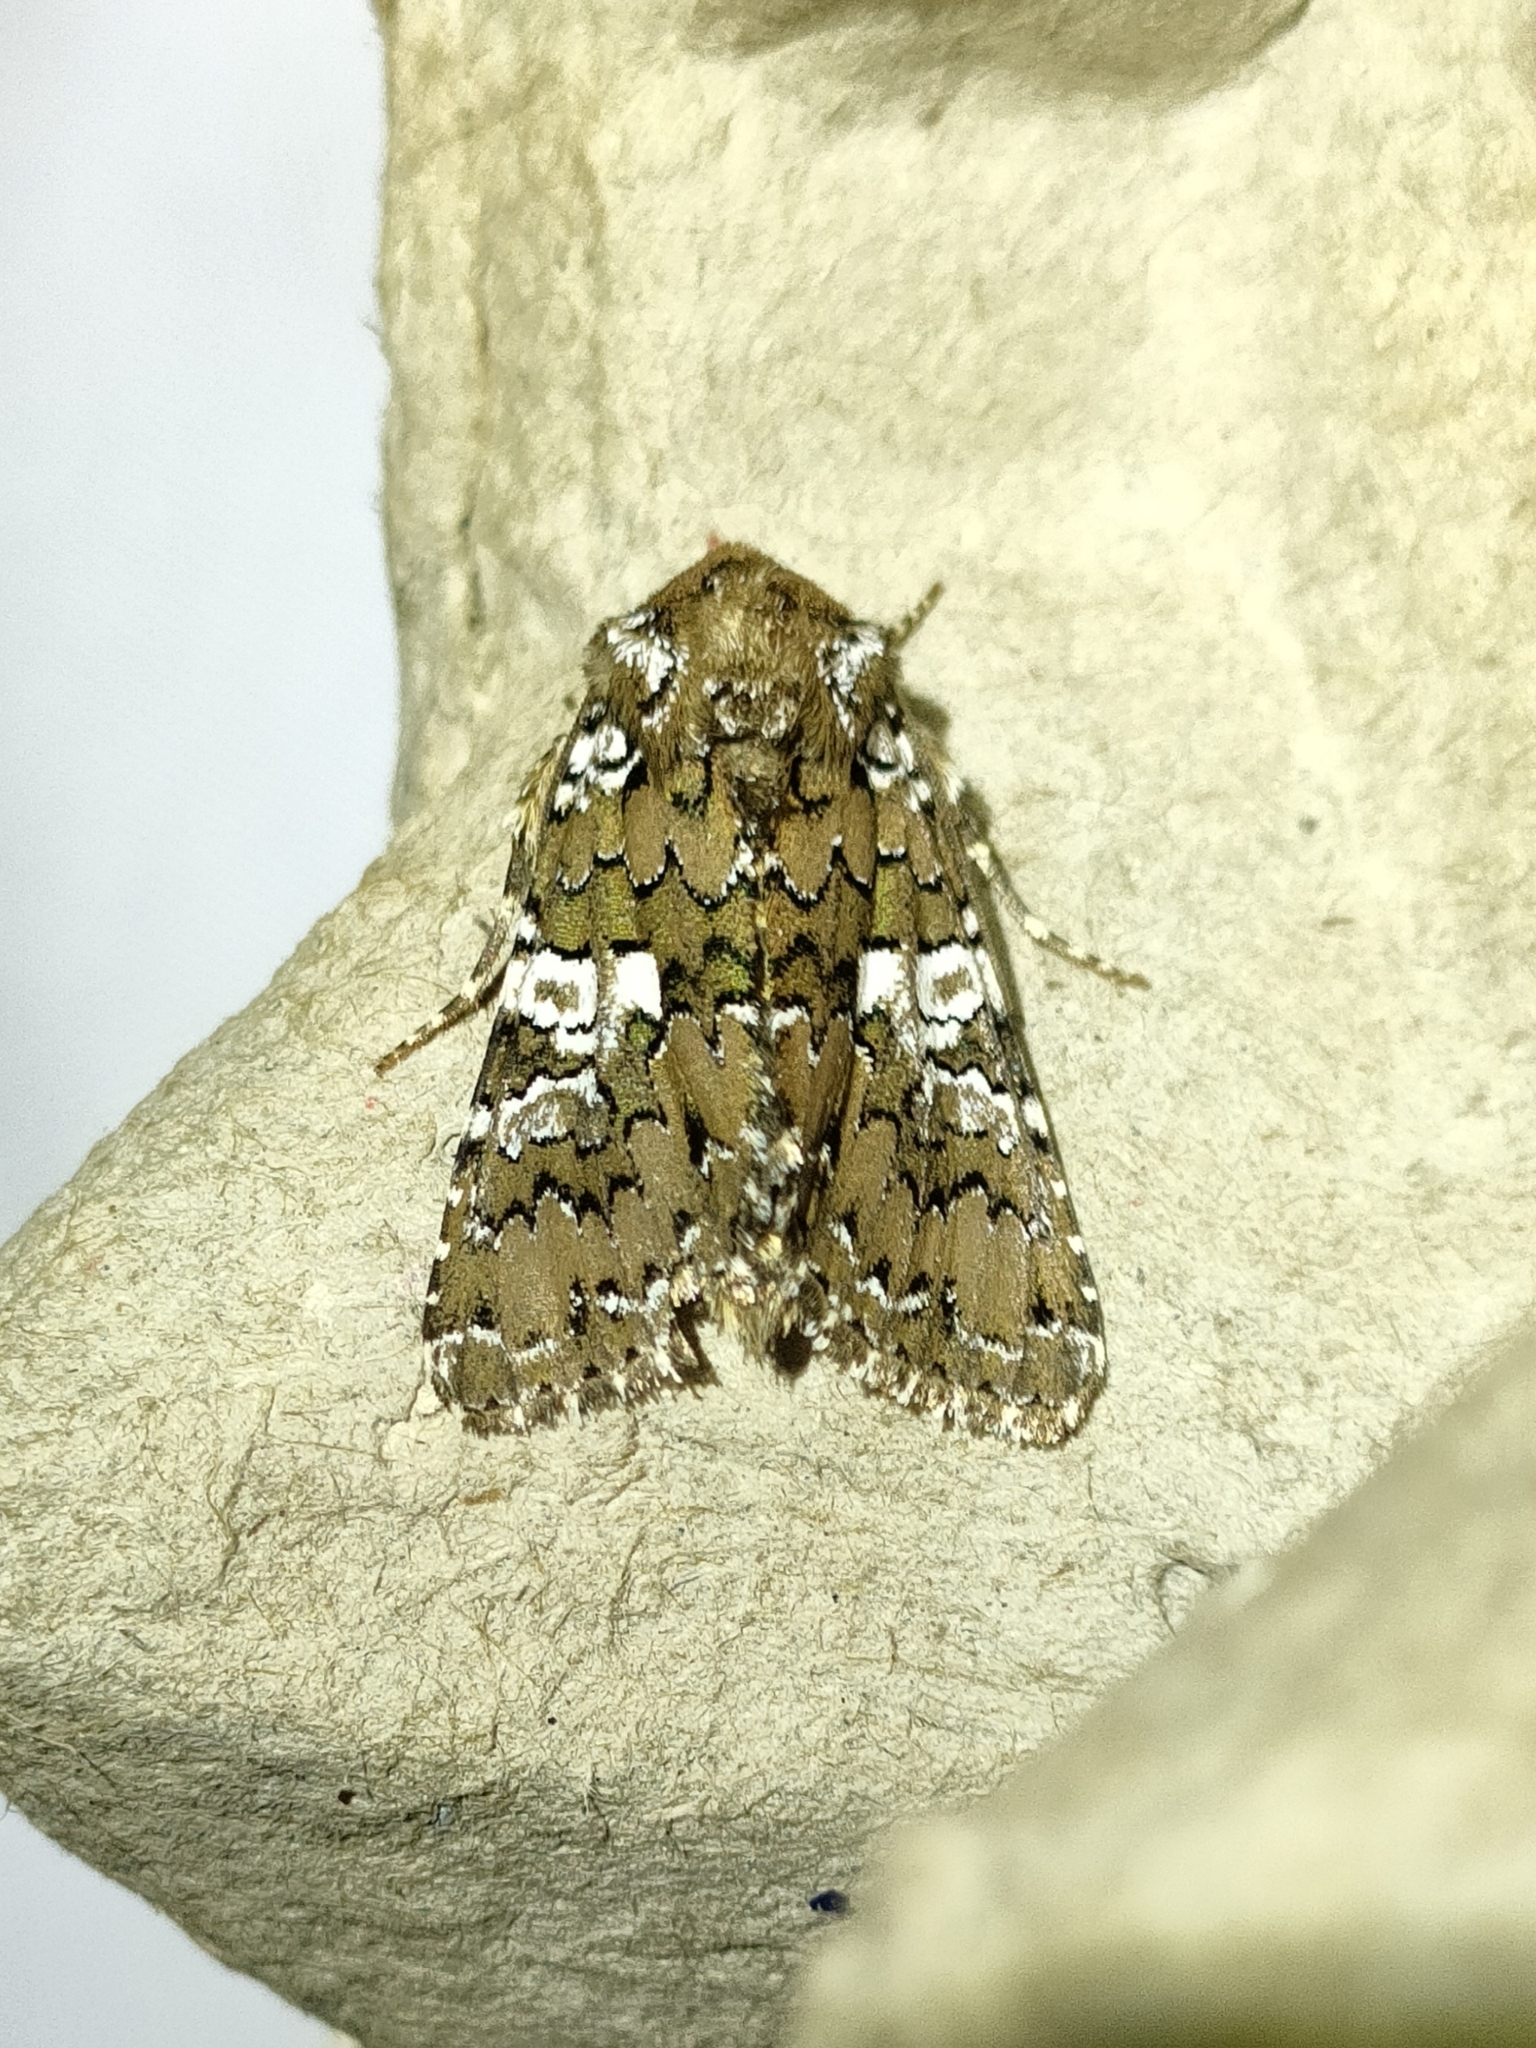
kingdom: Animalia
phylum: Arthropoda
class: Insecta
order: Lepidoptera
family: Noctuidae
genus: Hadena
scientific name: Hadena albimacula
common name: White spot
